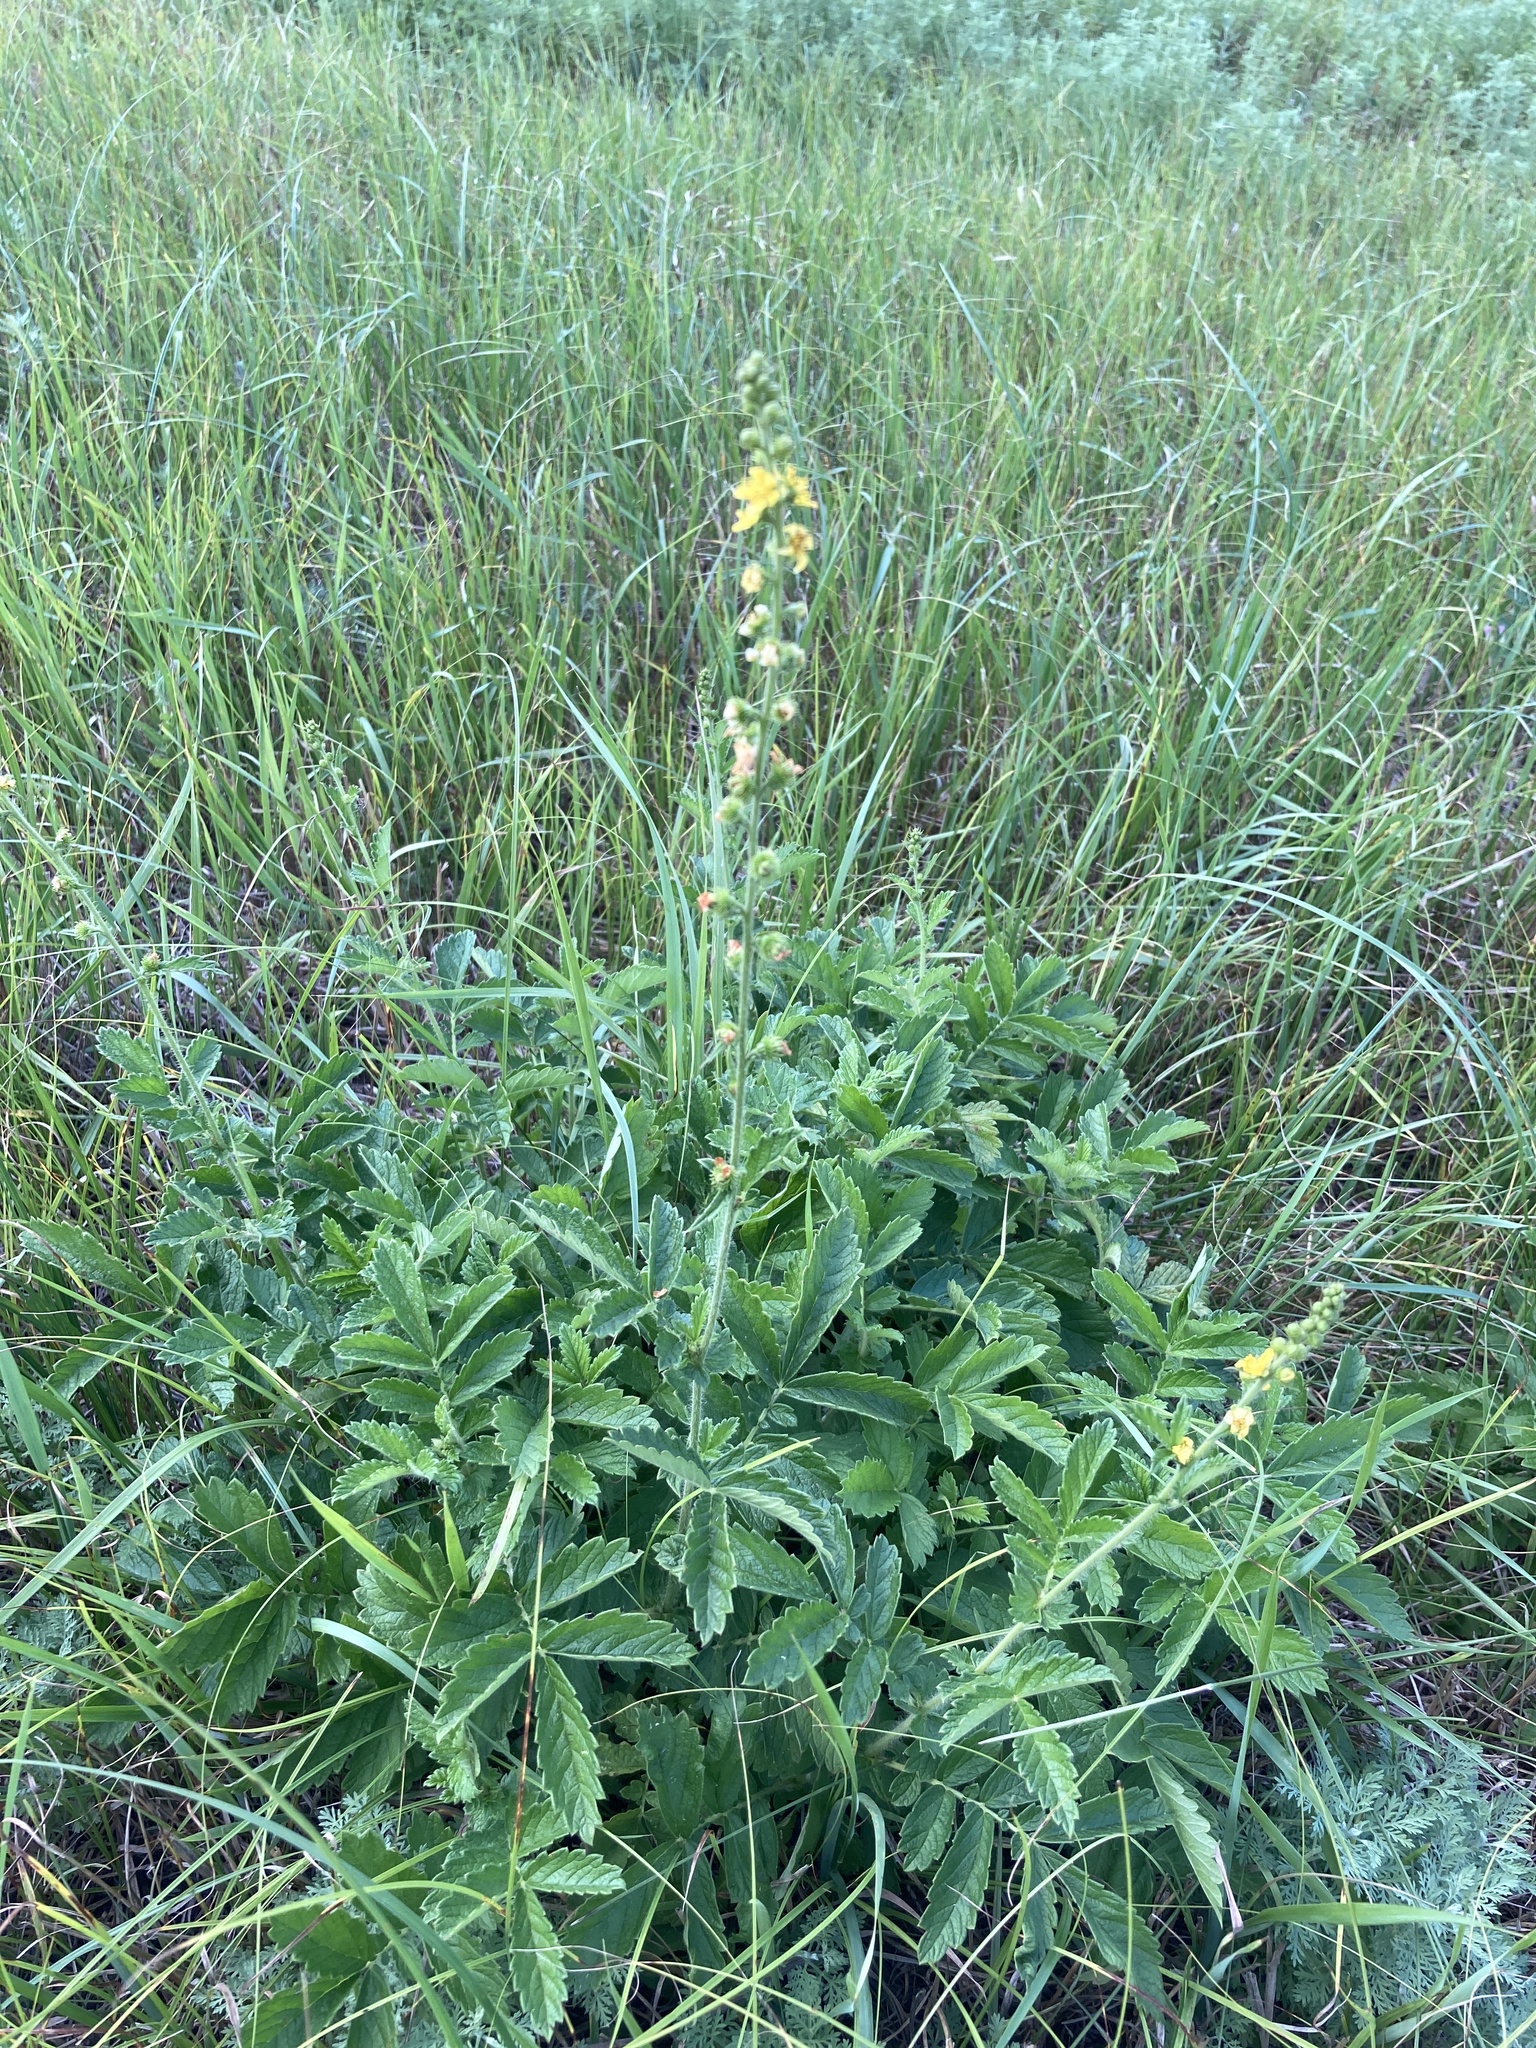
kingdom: Plantae
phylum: Tracheophyta
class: Magnoliopsida
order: Rosales
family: Rosaceae
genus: Agrimonia
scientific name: Agrimonia eupatoria
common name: Agrimony
